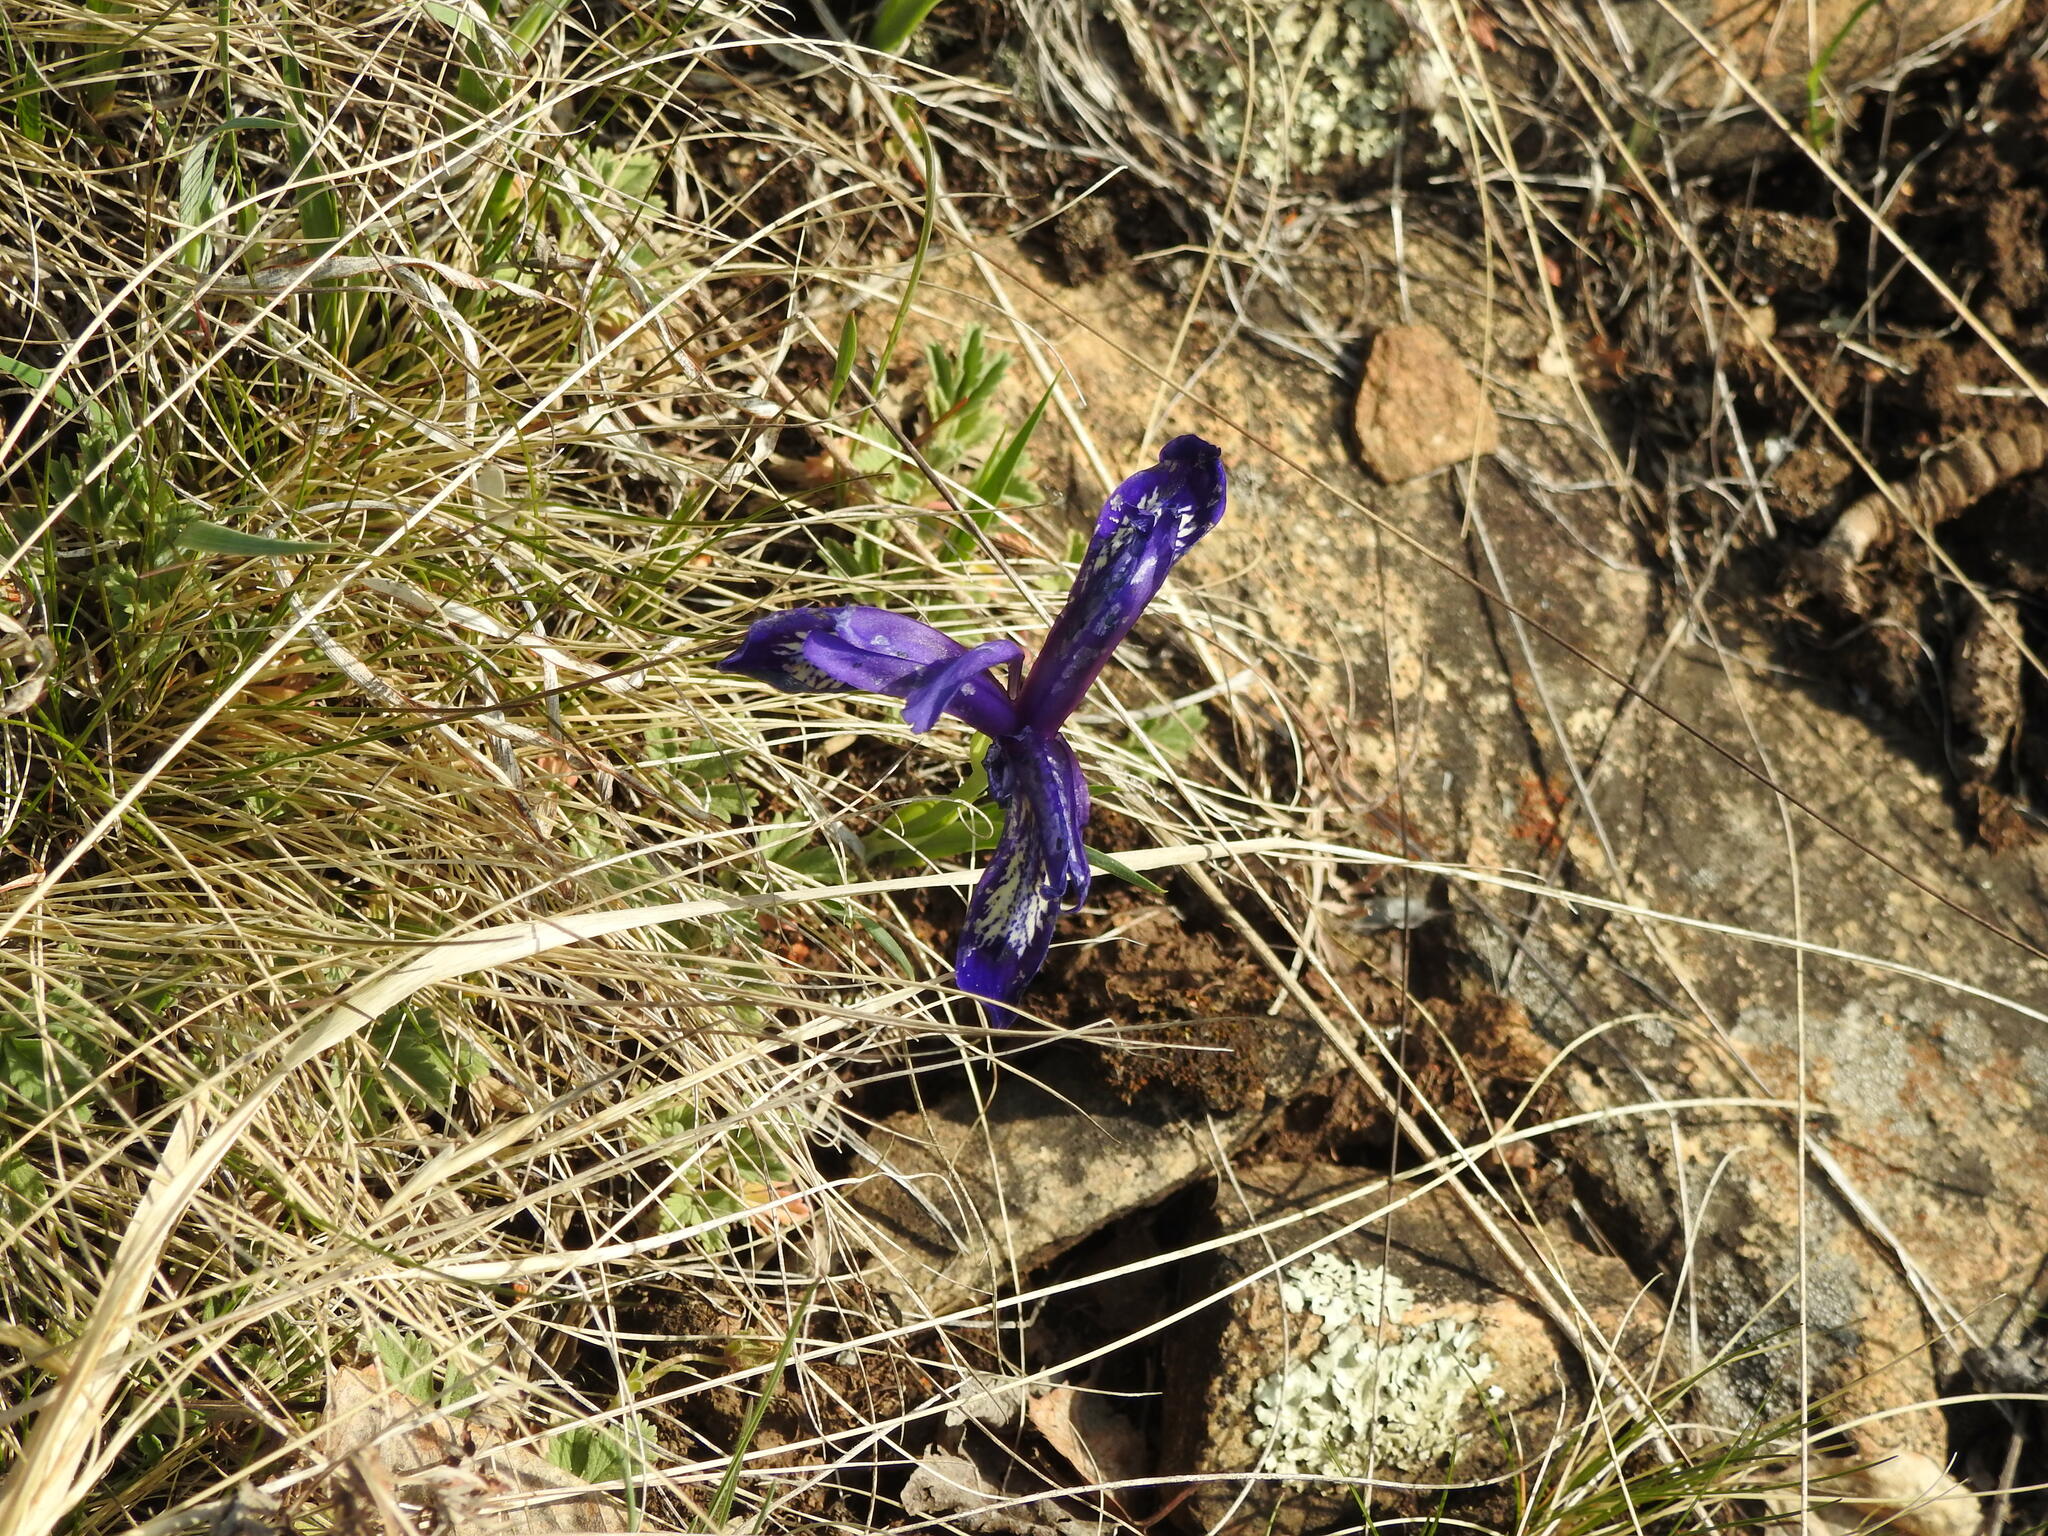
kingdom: Plantae
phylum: Tracheophyta
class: Liliopsida
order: Asparagales
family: Iridaceae
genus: Iris
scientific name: Iris ruthenica
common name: Purple-bract iris
